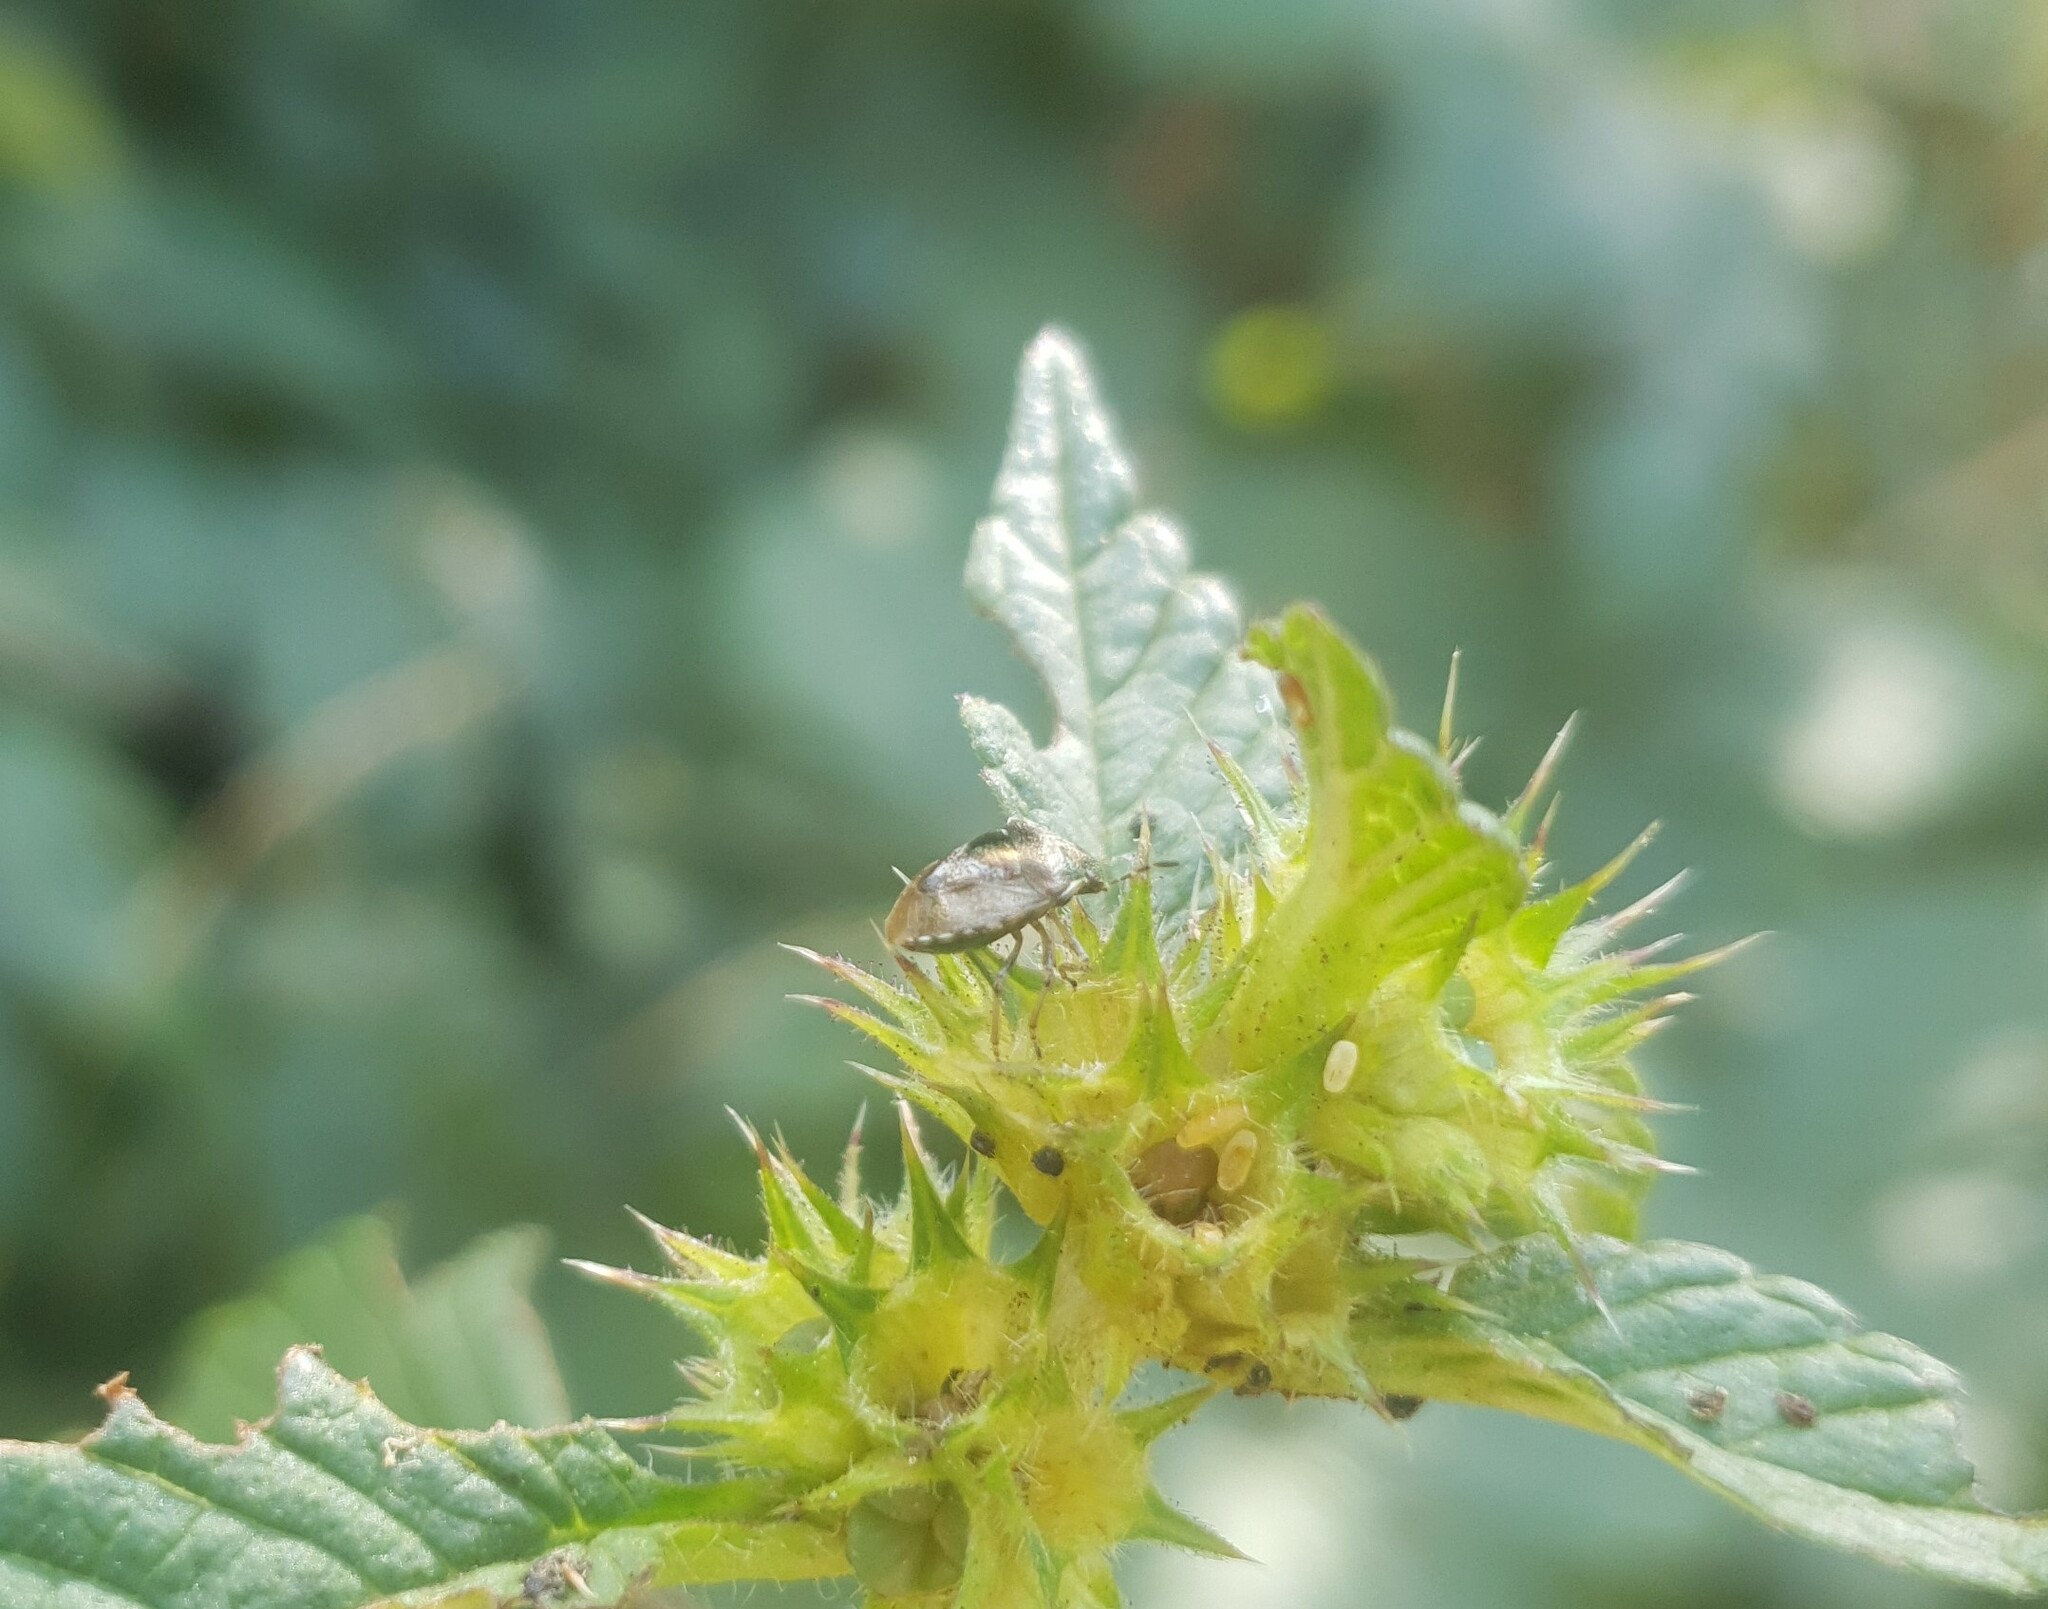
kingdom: Animalia
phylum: Arthropoda
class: Insecta
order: Hemiptera
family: Pentatomidae
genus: Eysarcoris
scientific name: Eysarcoris venustissimus
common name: Woundwort shieldbug
